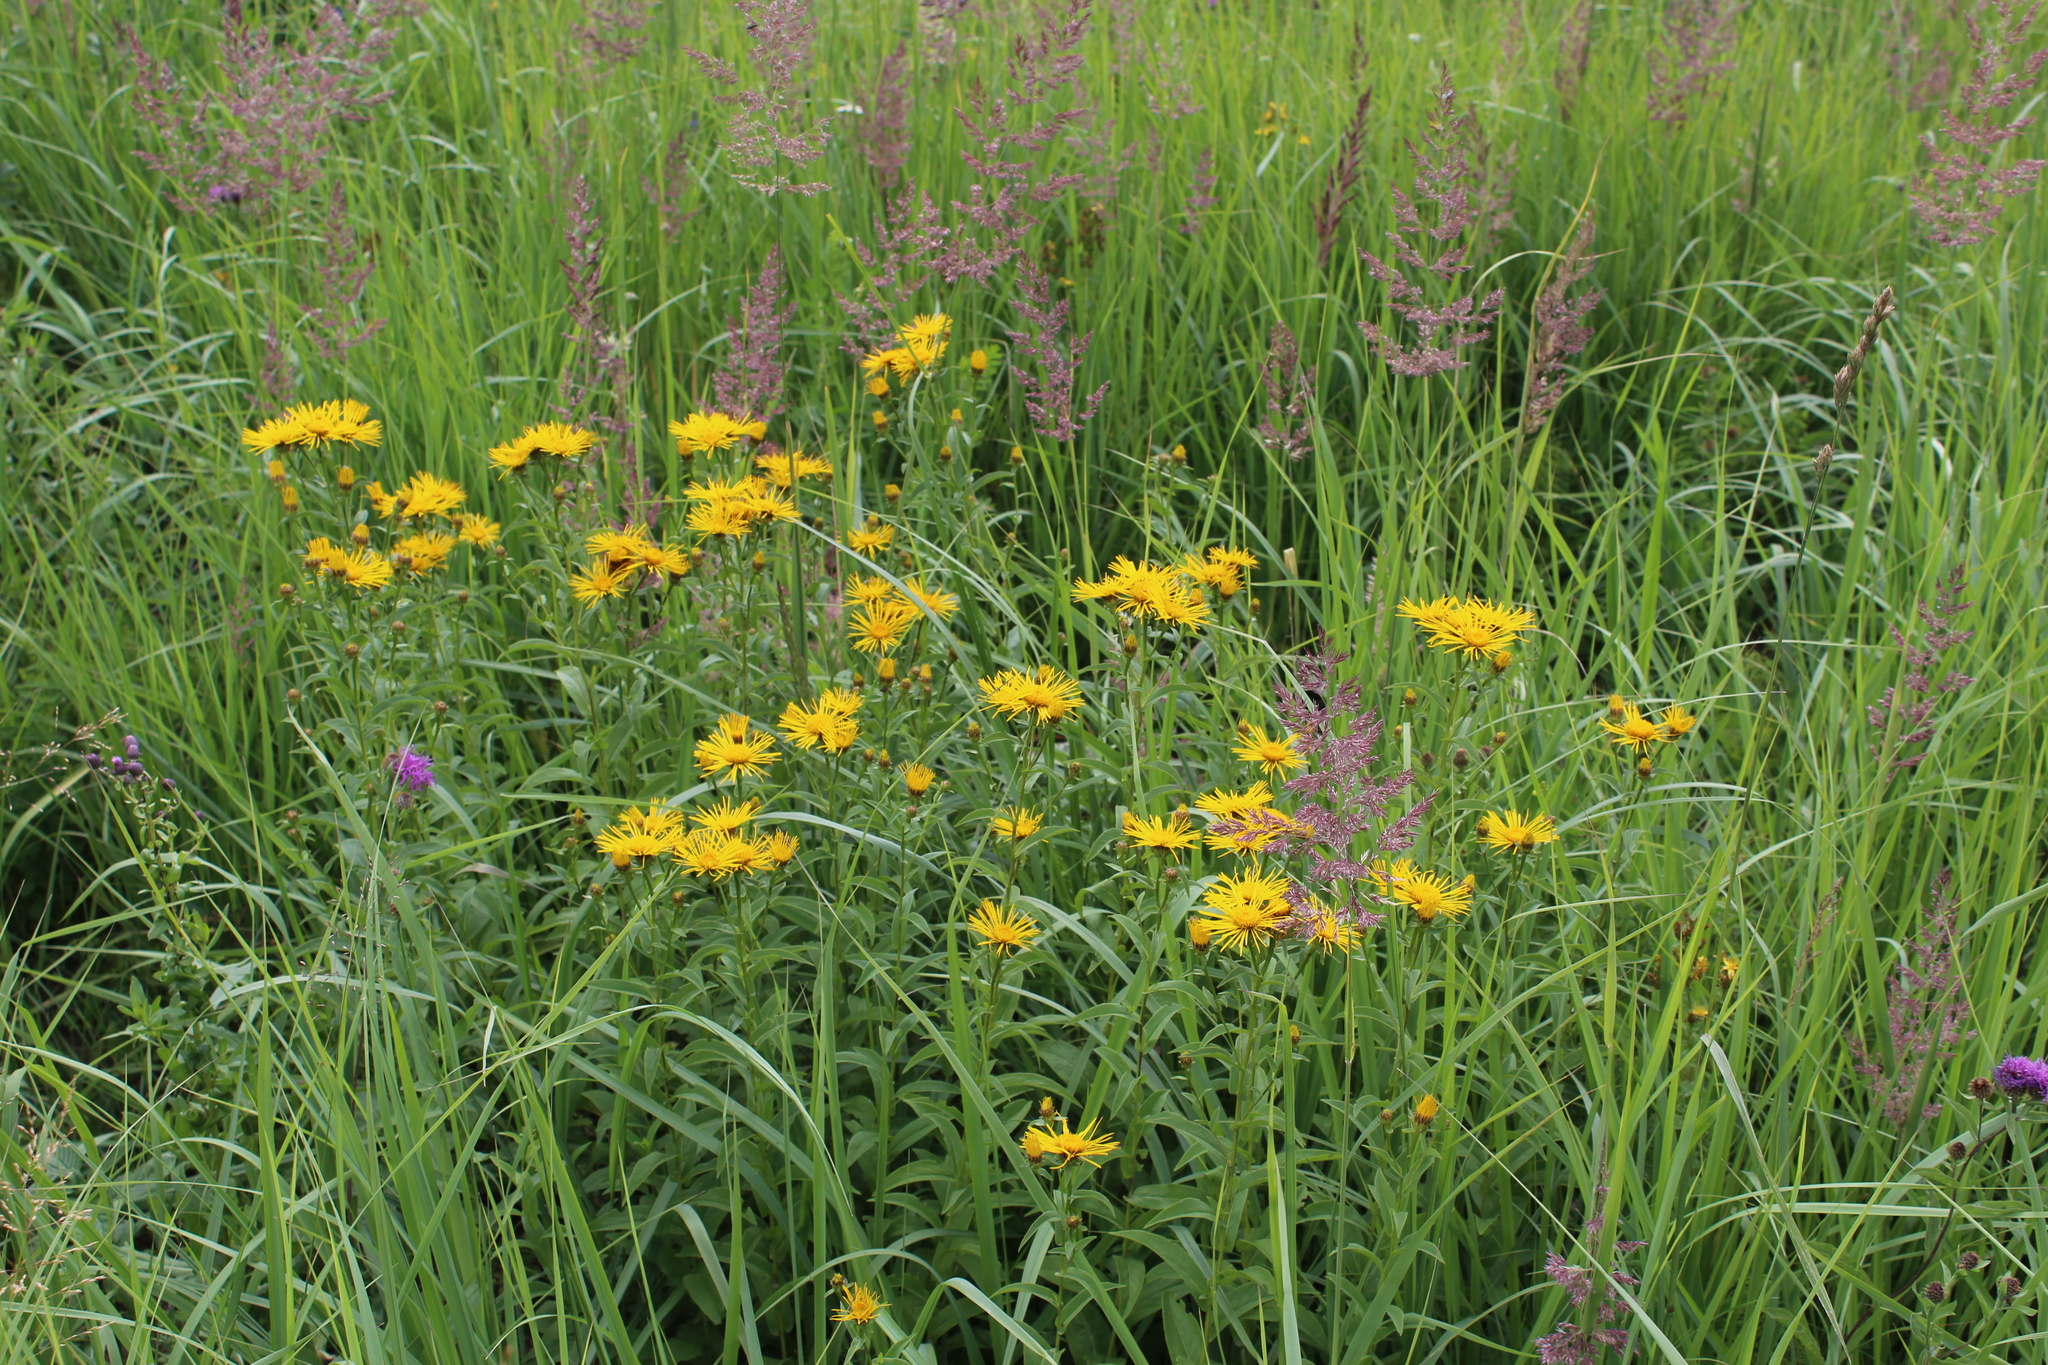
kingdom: Plantae
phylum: Tracheophyta
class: Magnoliopsida
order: Asterales
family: Asteraceae
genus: Pentanema
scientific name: Pentanema salicinum
